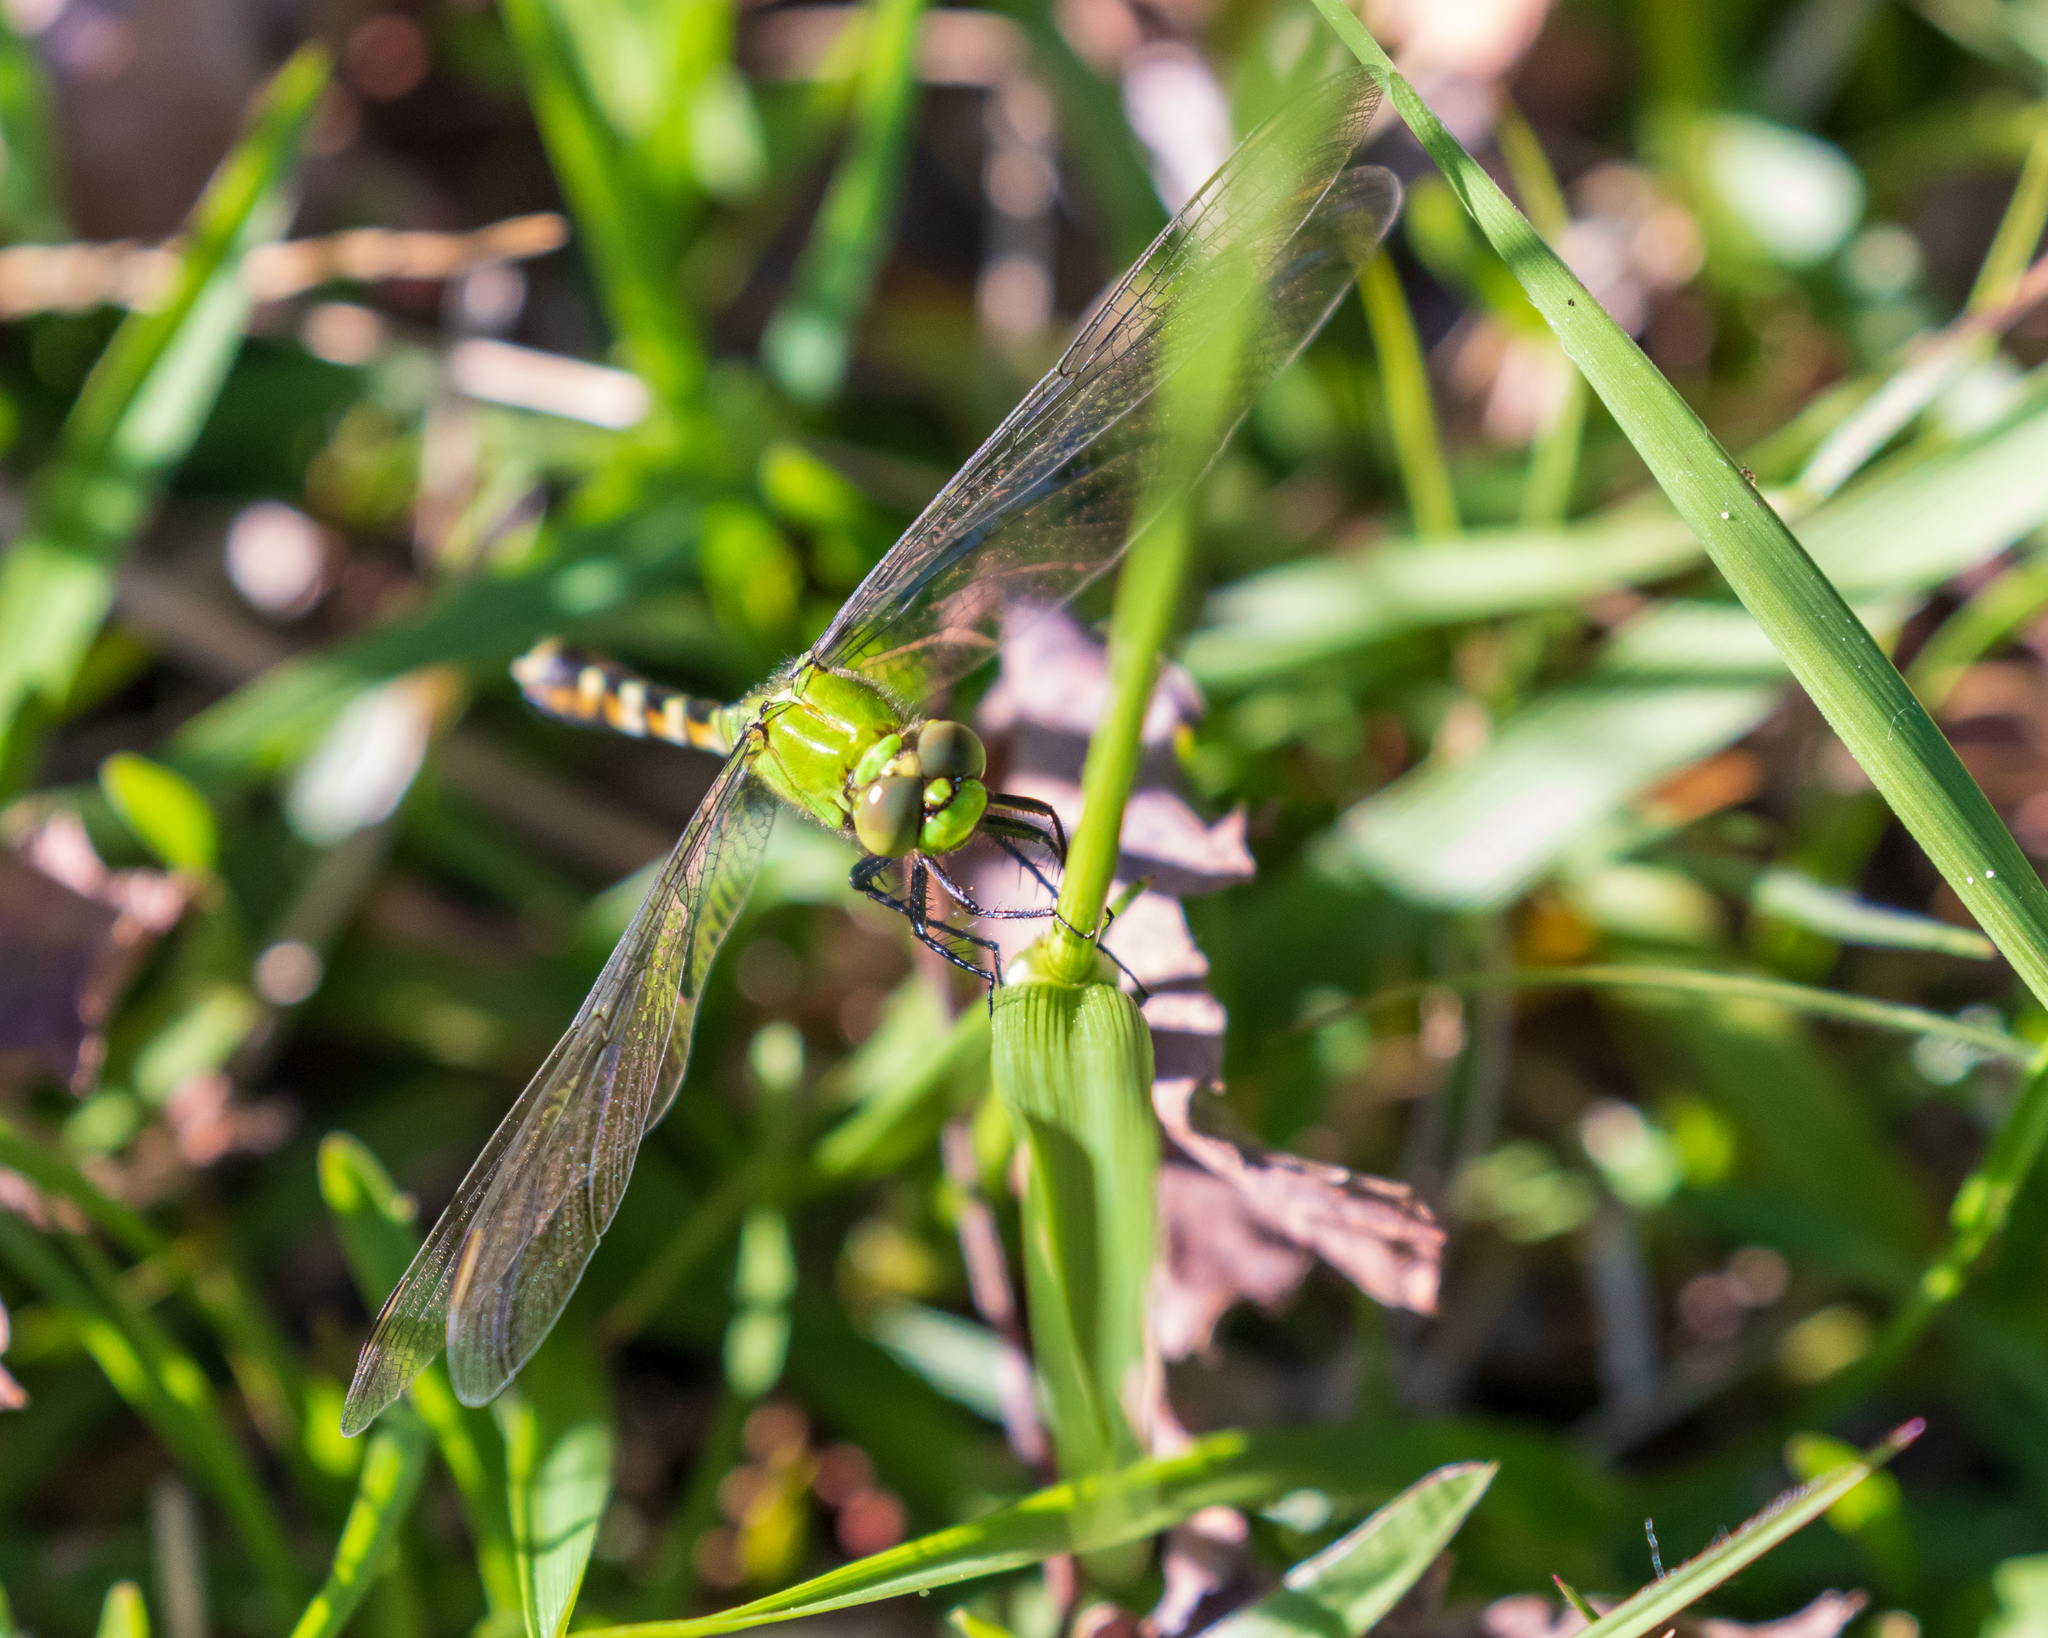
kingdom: Animalia
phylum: Arthropoda
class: Insecta
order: Odonata
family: Libellulidae
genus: Erythemis
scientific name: Erythemis simplicicollis
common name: Eastern pondhawk
